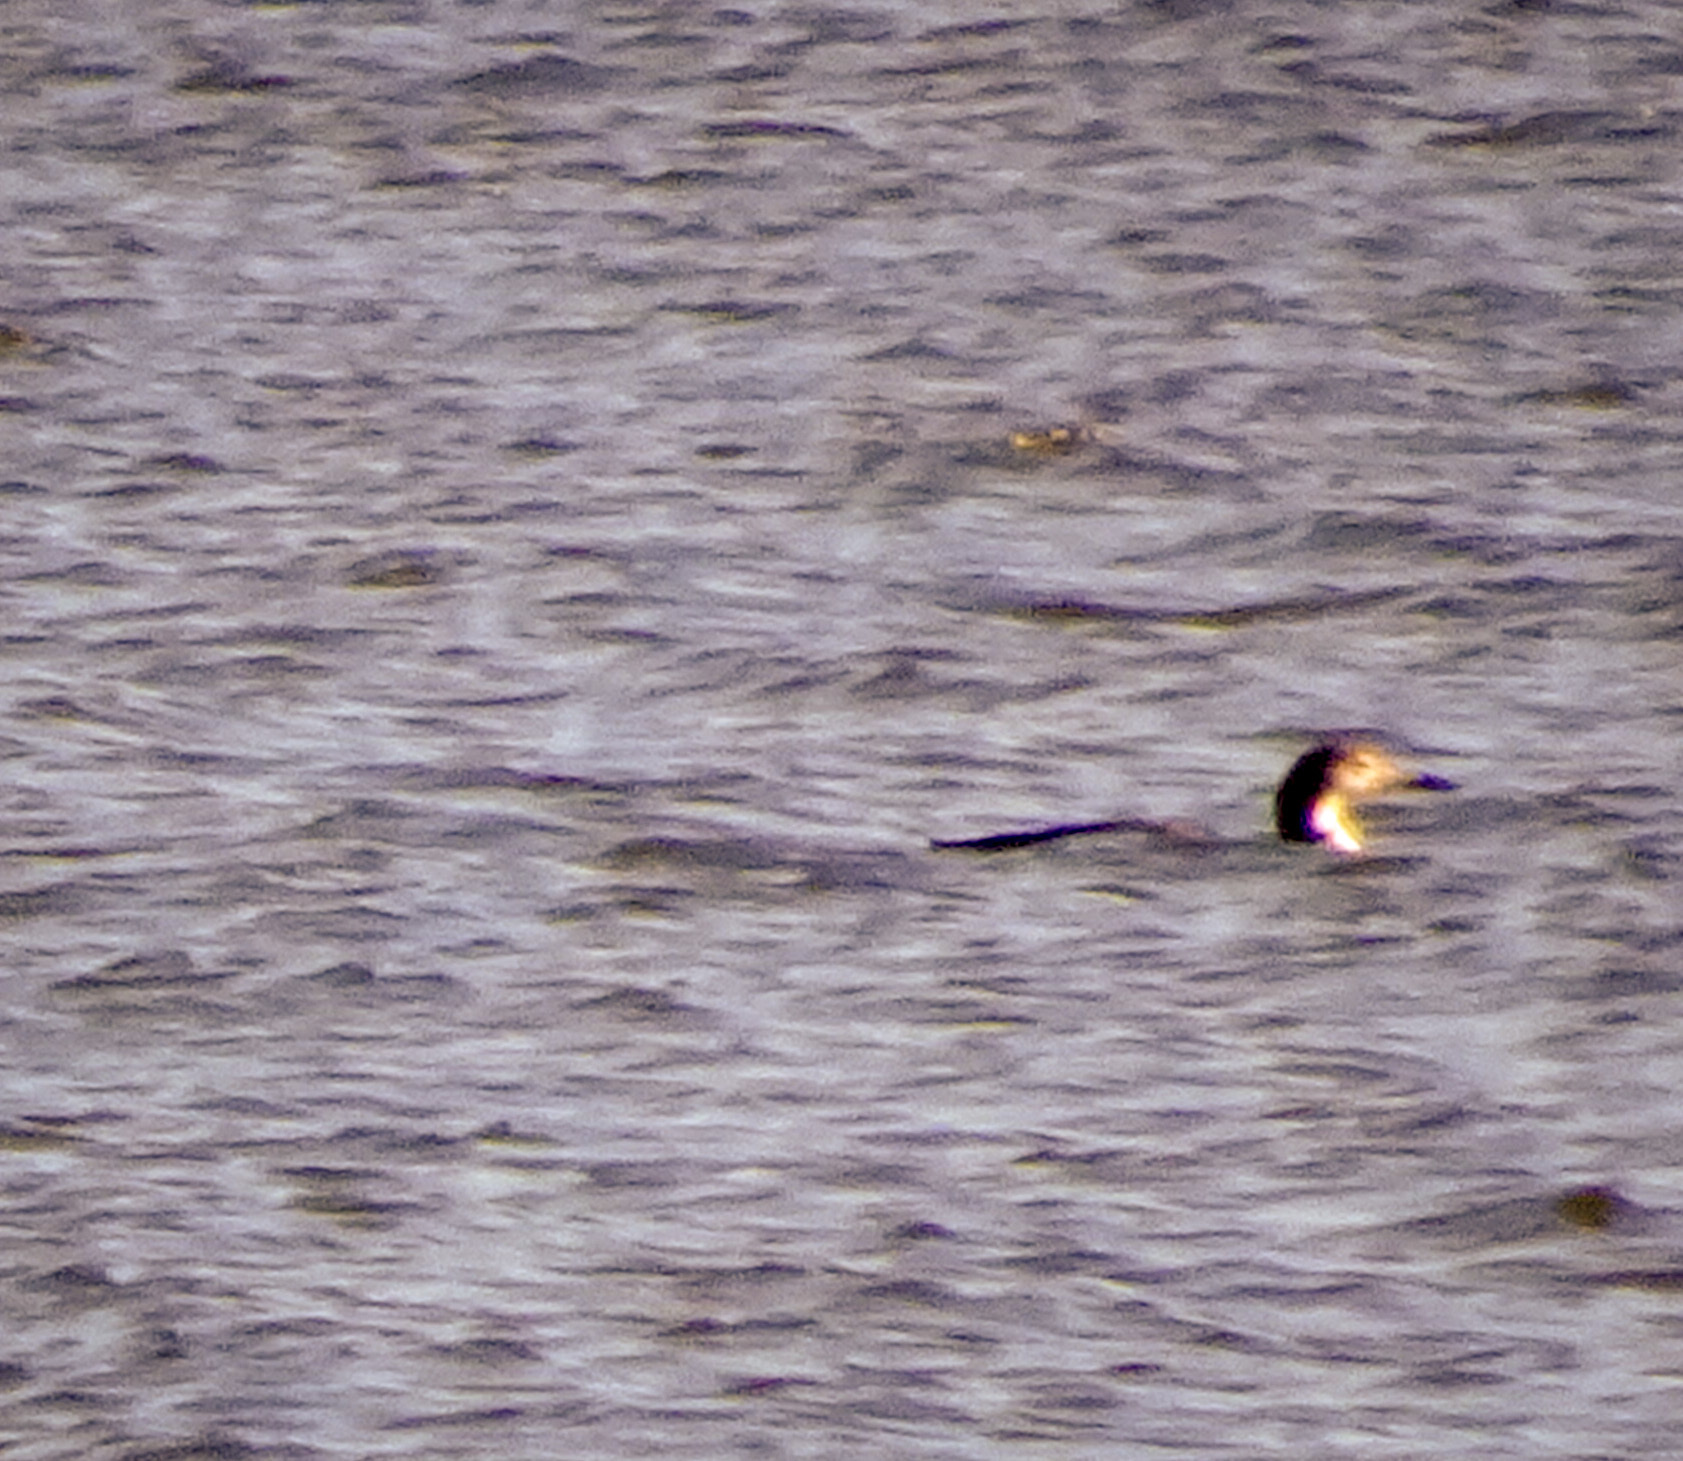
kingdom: Animalia
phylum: Chordata
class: Aves
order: Gaviiformes
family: Gaviidae
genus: Gavia
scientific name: Gavia immer
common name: Common loon
